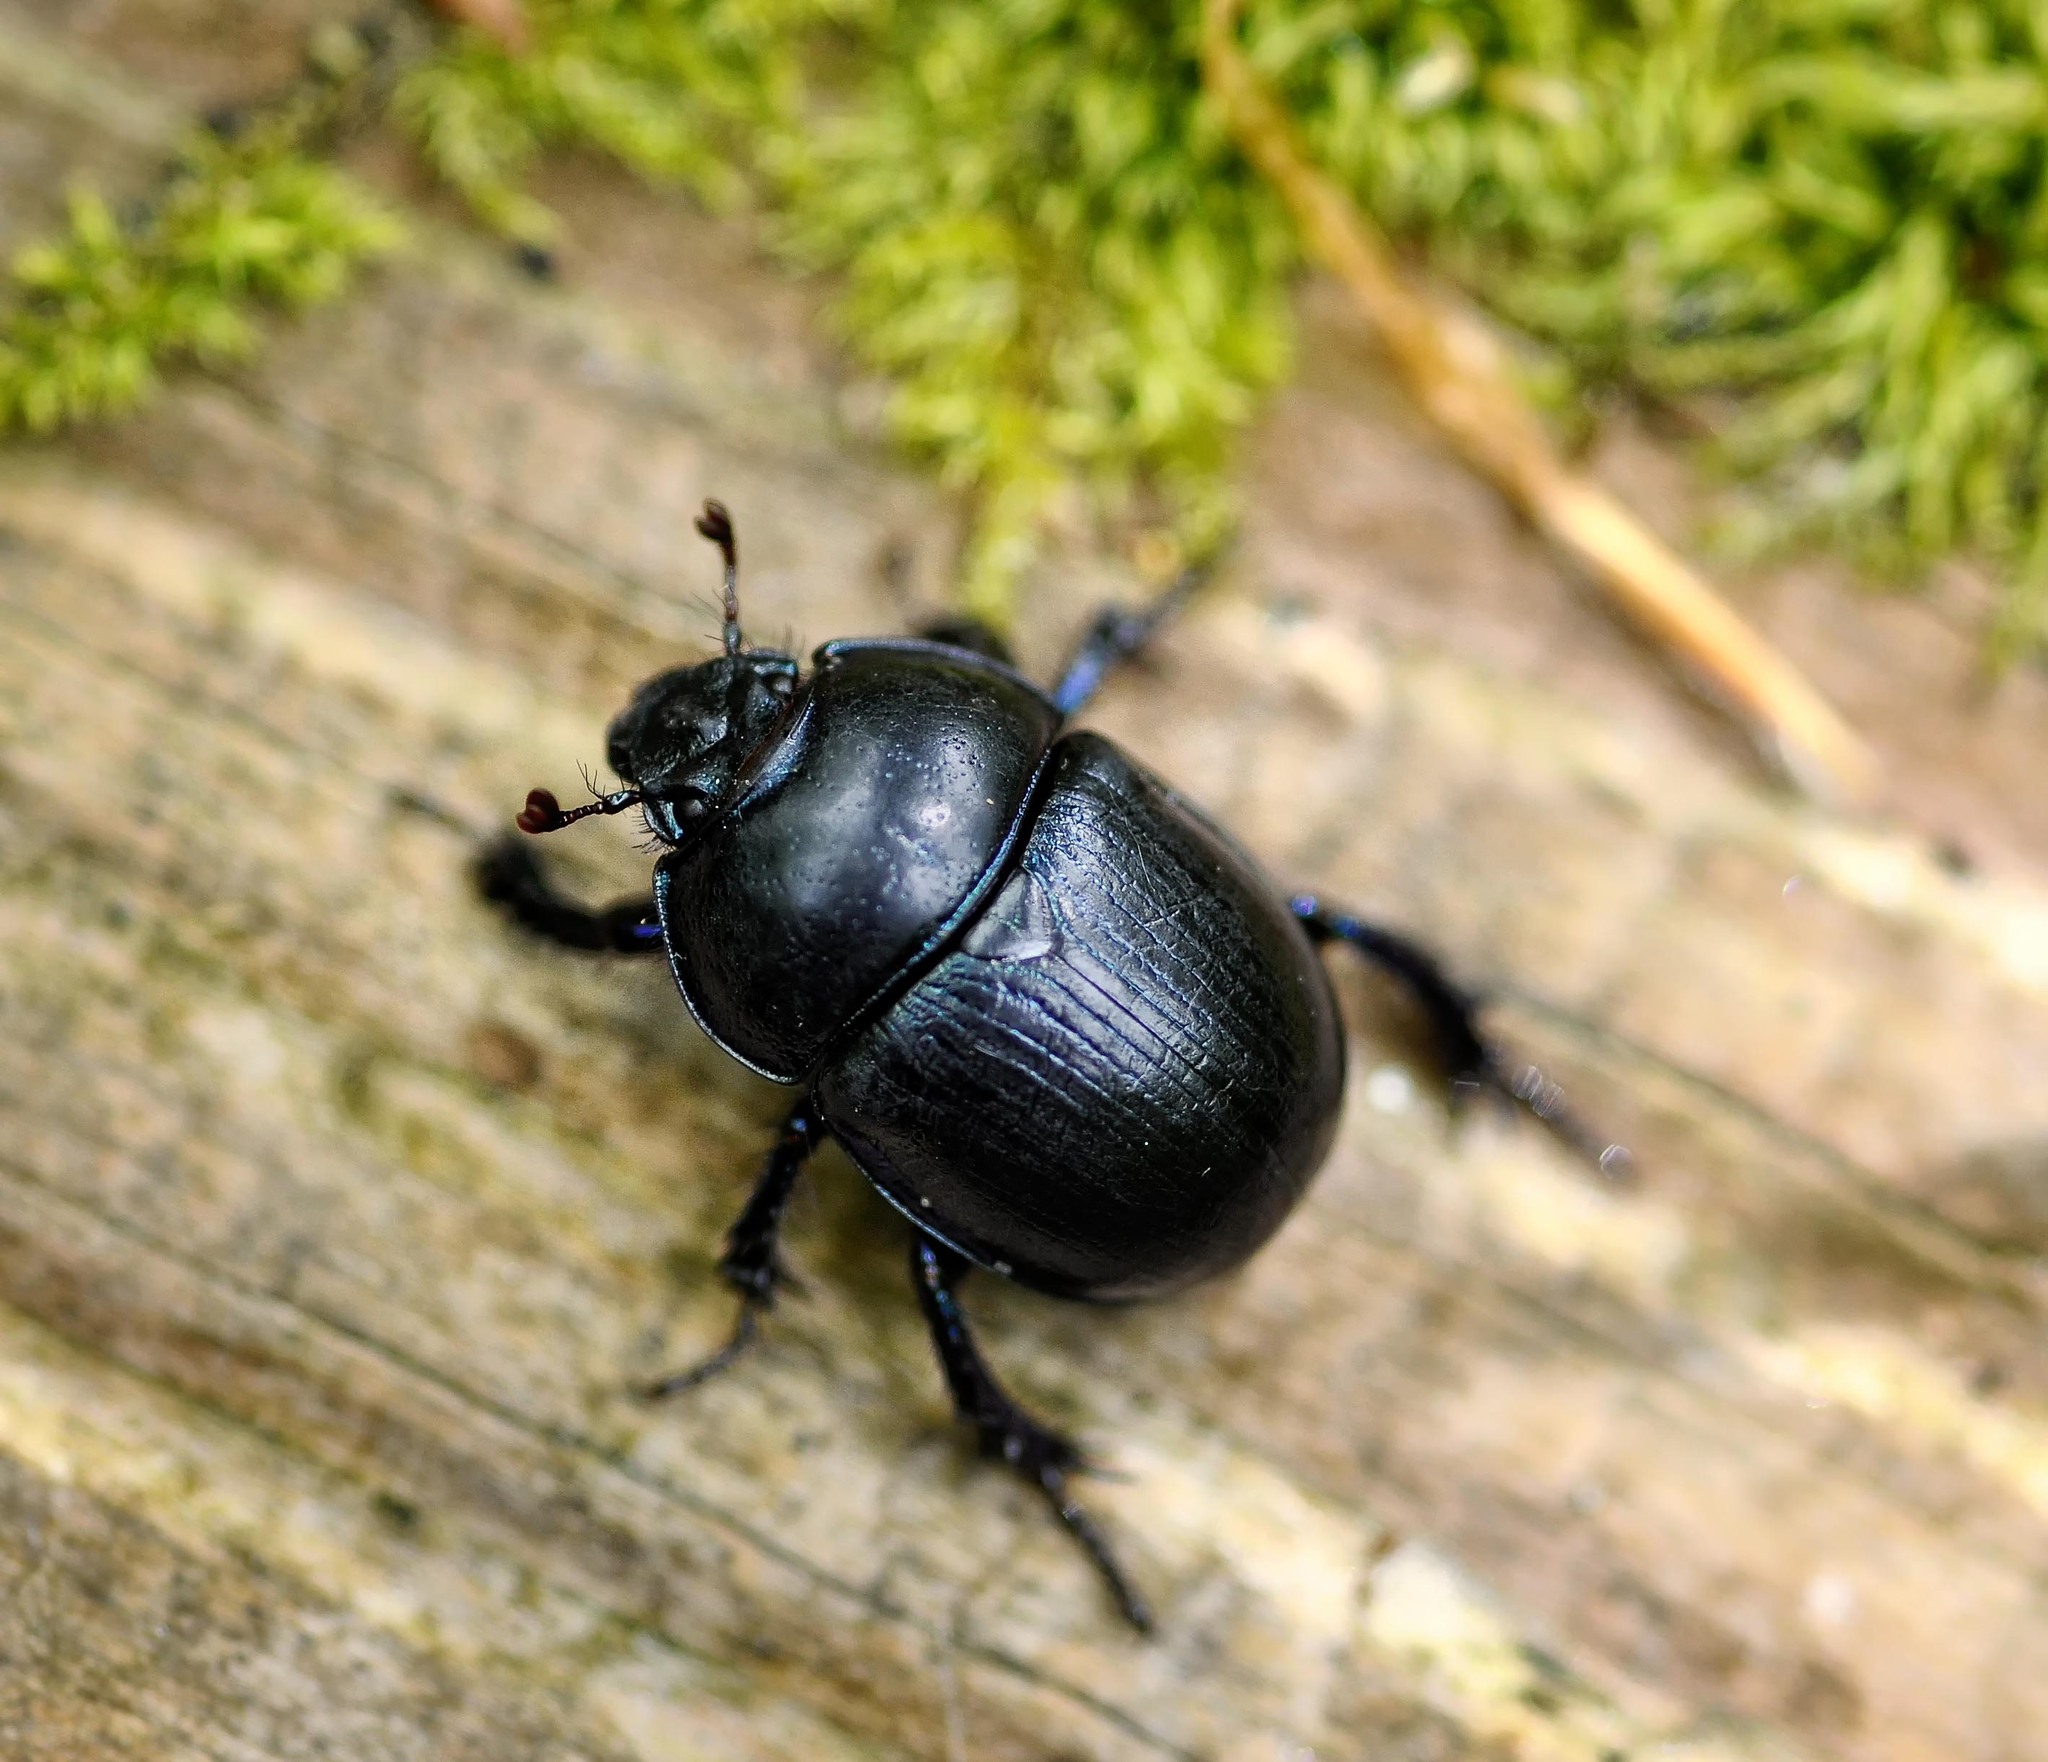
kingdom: Animalia
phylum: Arthropoda
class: Insecta
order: Coleoptera
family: Geotrupidae
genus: Anoplotrupes
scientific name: Anoplotrupes stercorosus
